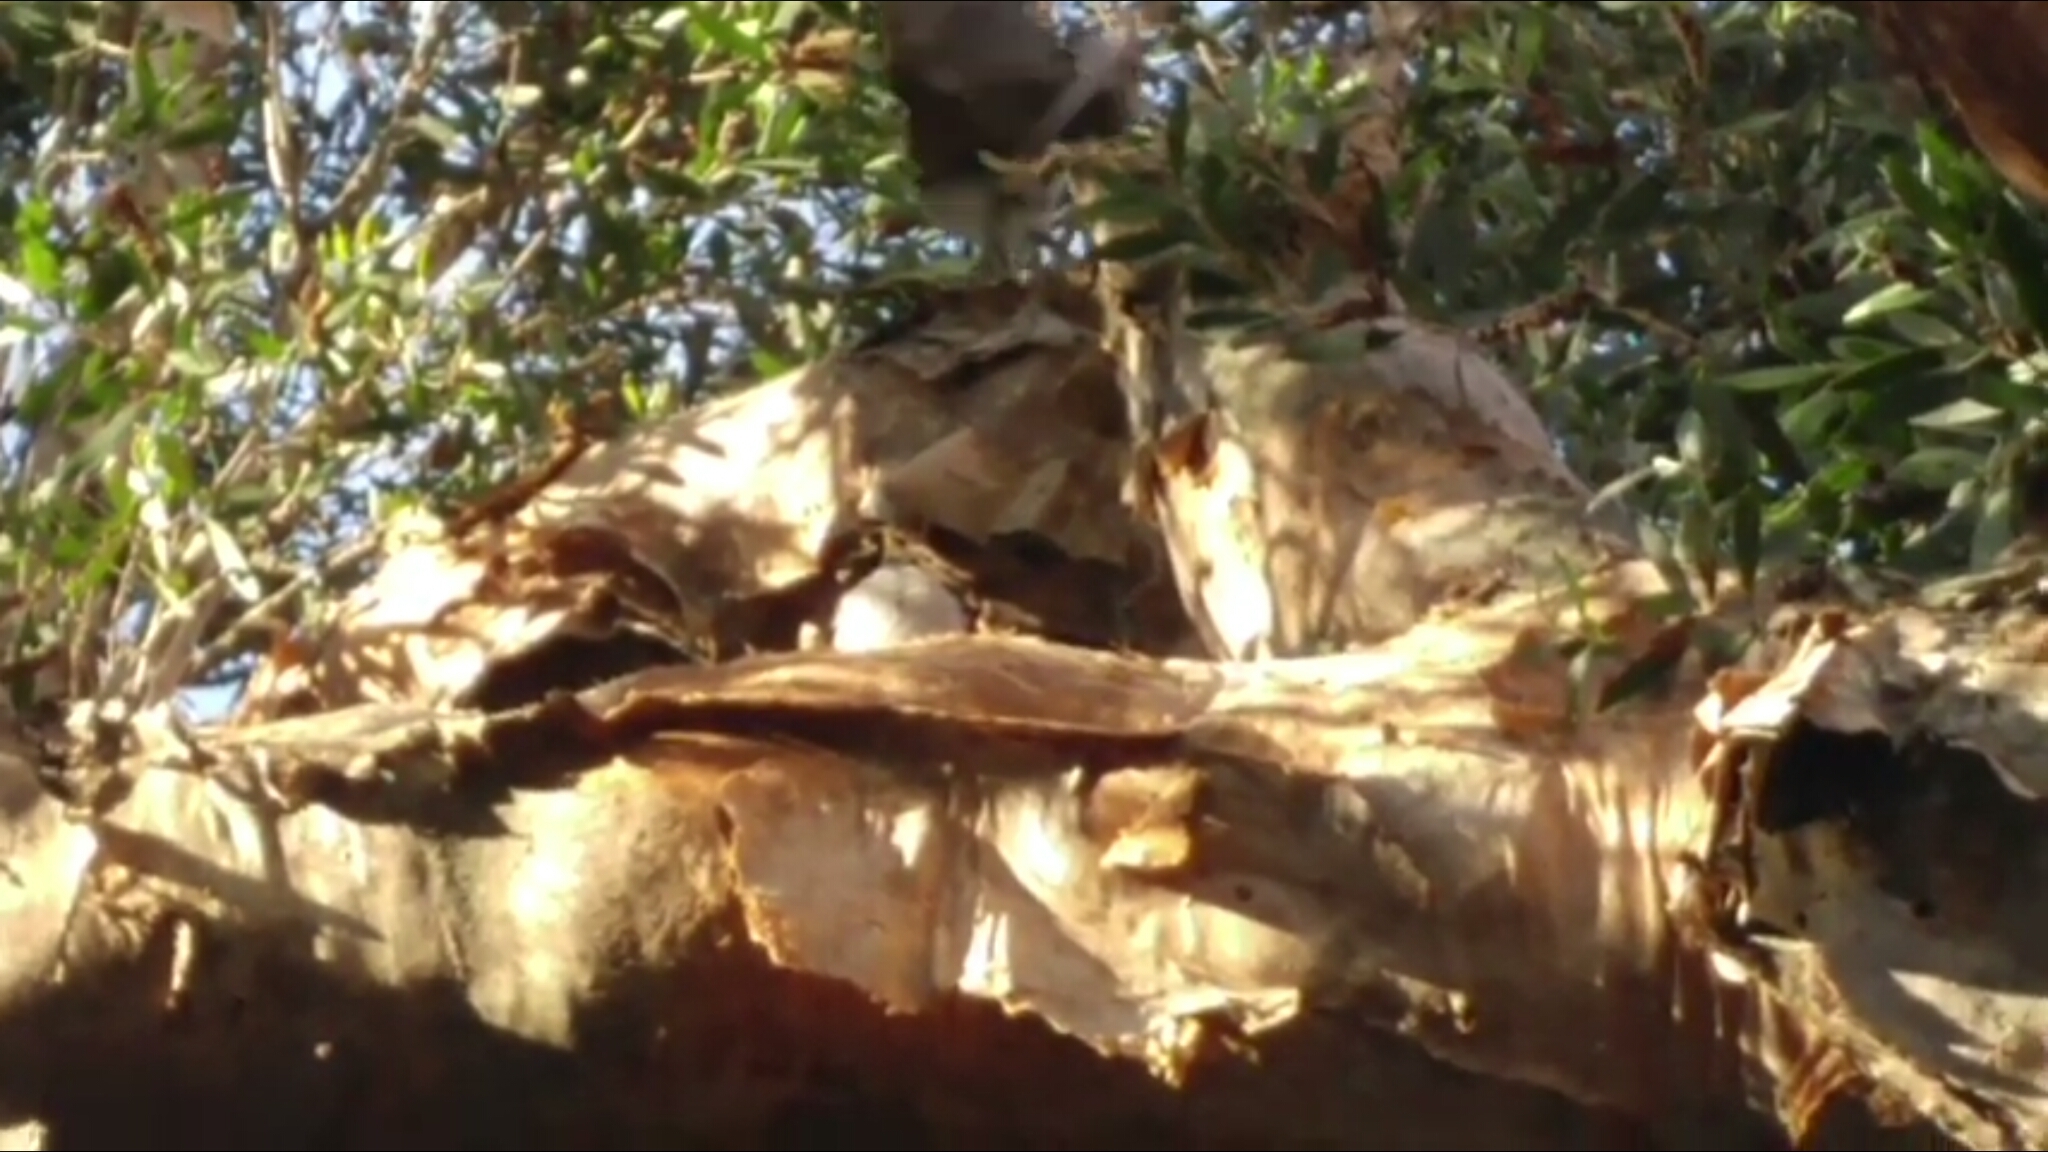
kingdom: Animalia
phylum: Chordata
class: Aves
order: Passeriformes
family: Meliphagidae
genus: Manorina
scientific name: Manorina melanocephala
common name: Noisy miner
